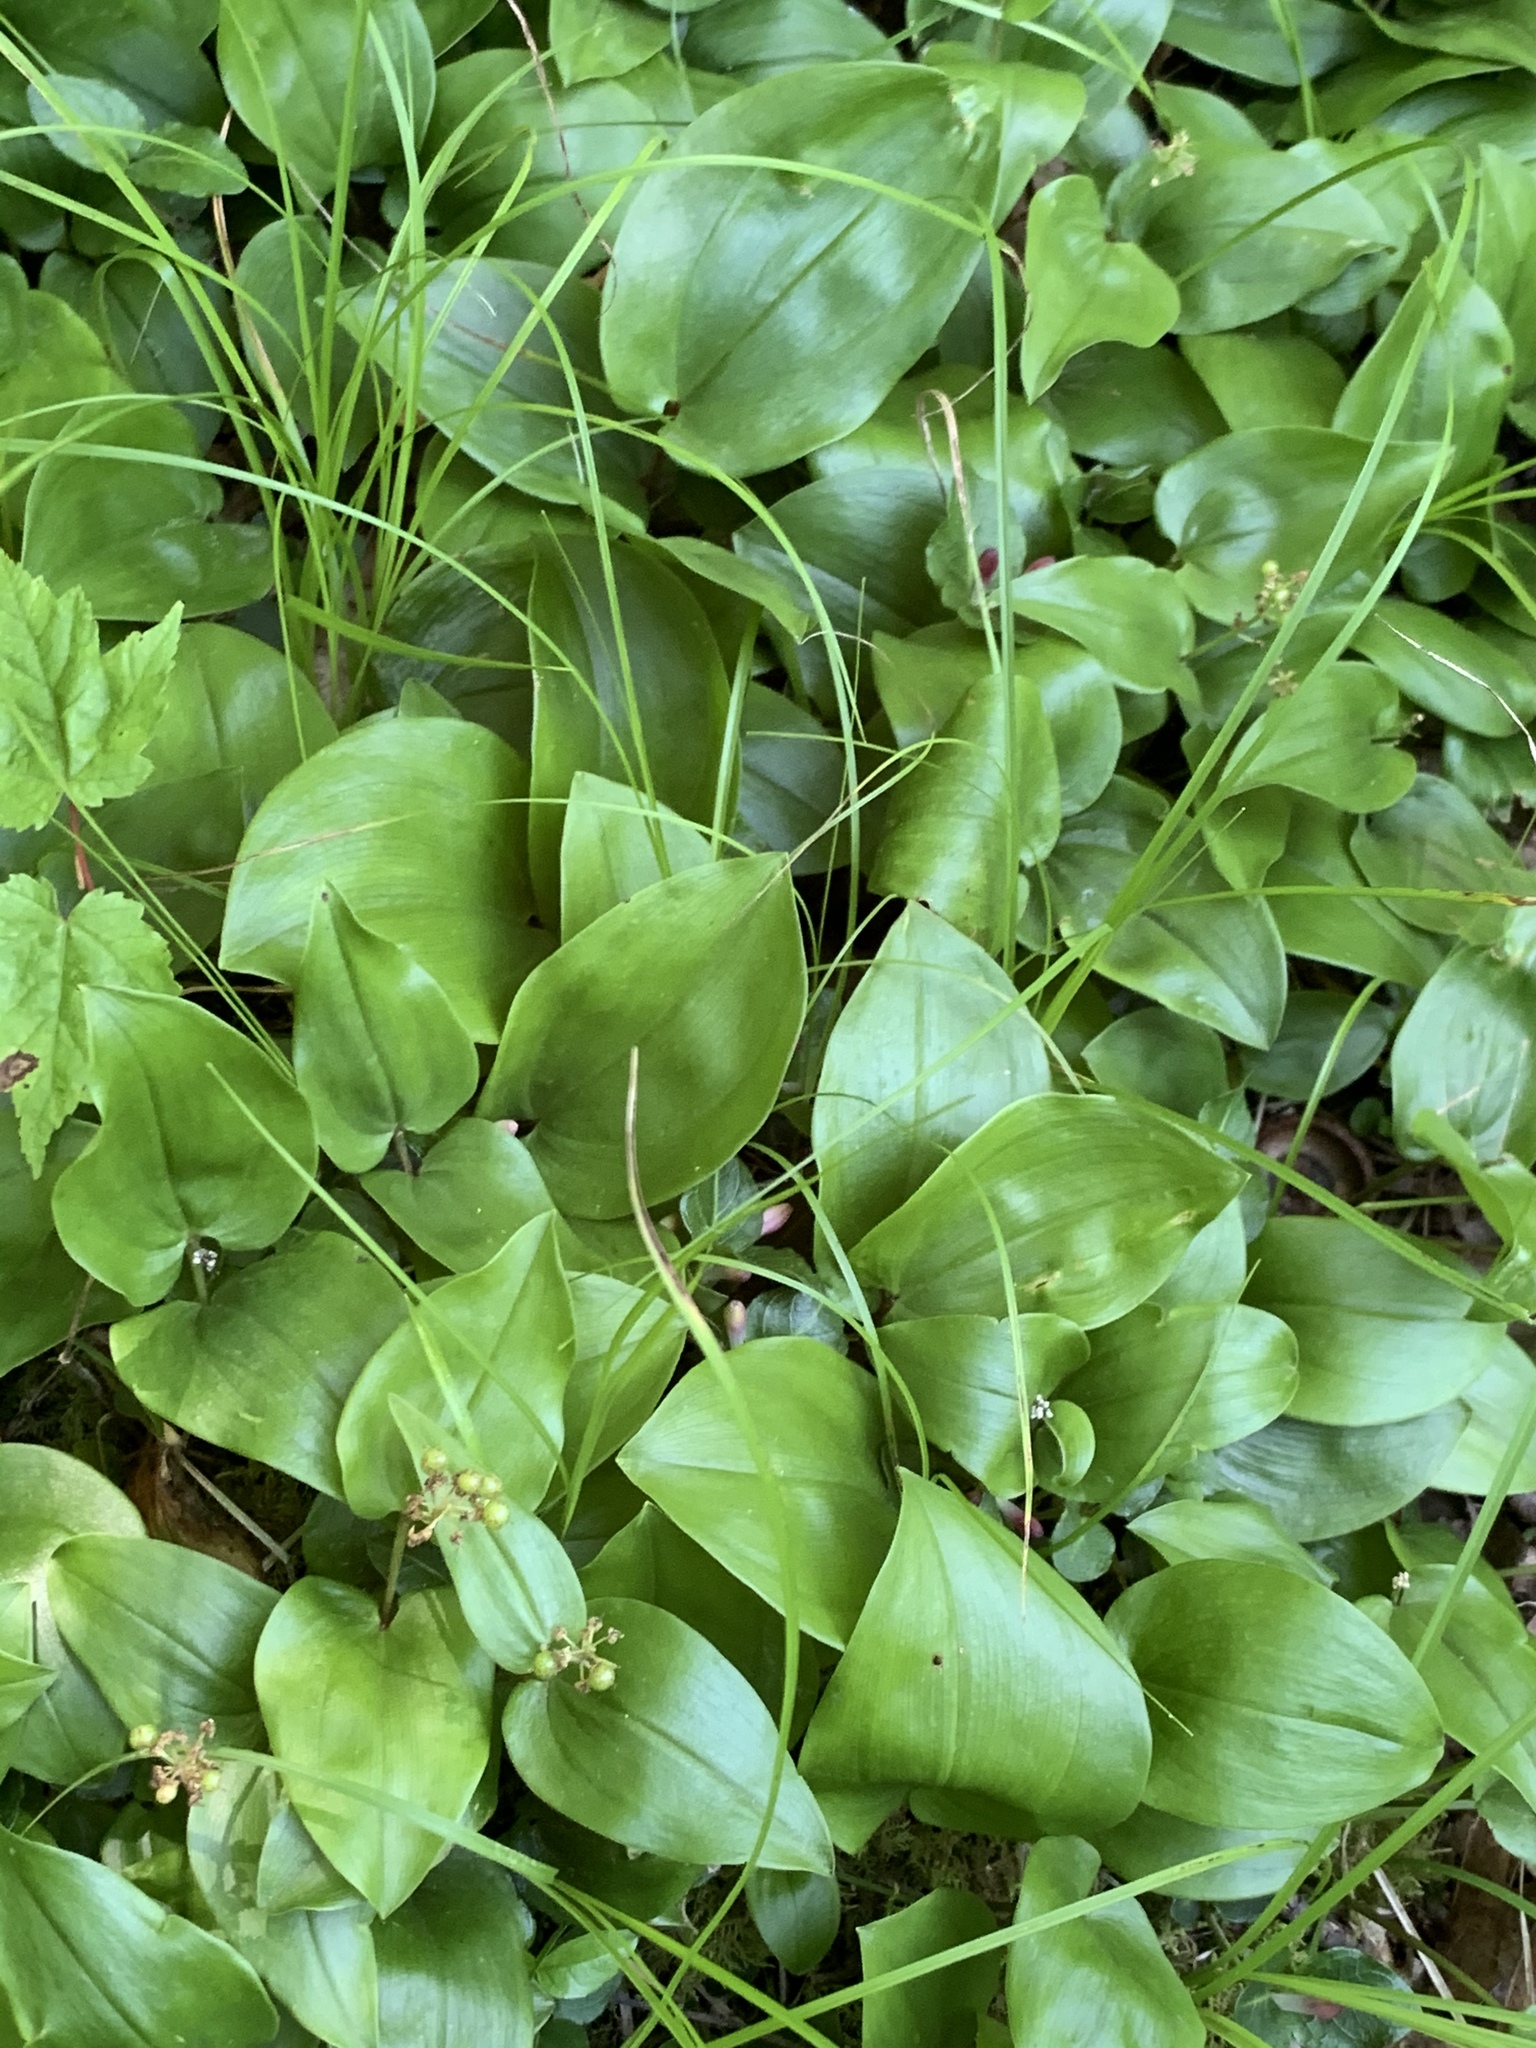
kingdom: Plantae
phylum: Tracheophyta
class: Liliopsida
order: Asparagales
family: Asparagaceae
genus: Maianthemum
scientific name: Maianthemum canadense
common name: False lily-of-the-valley
